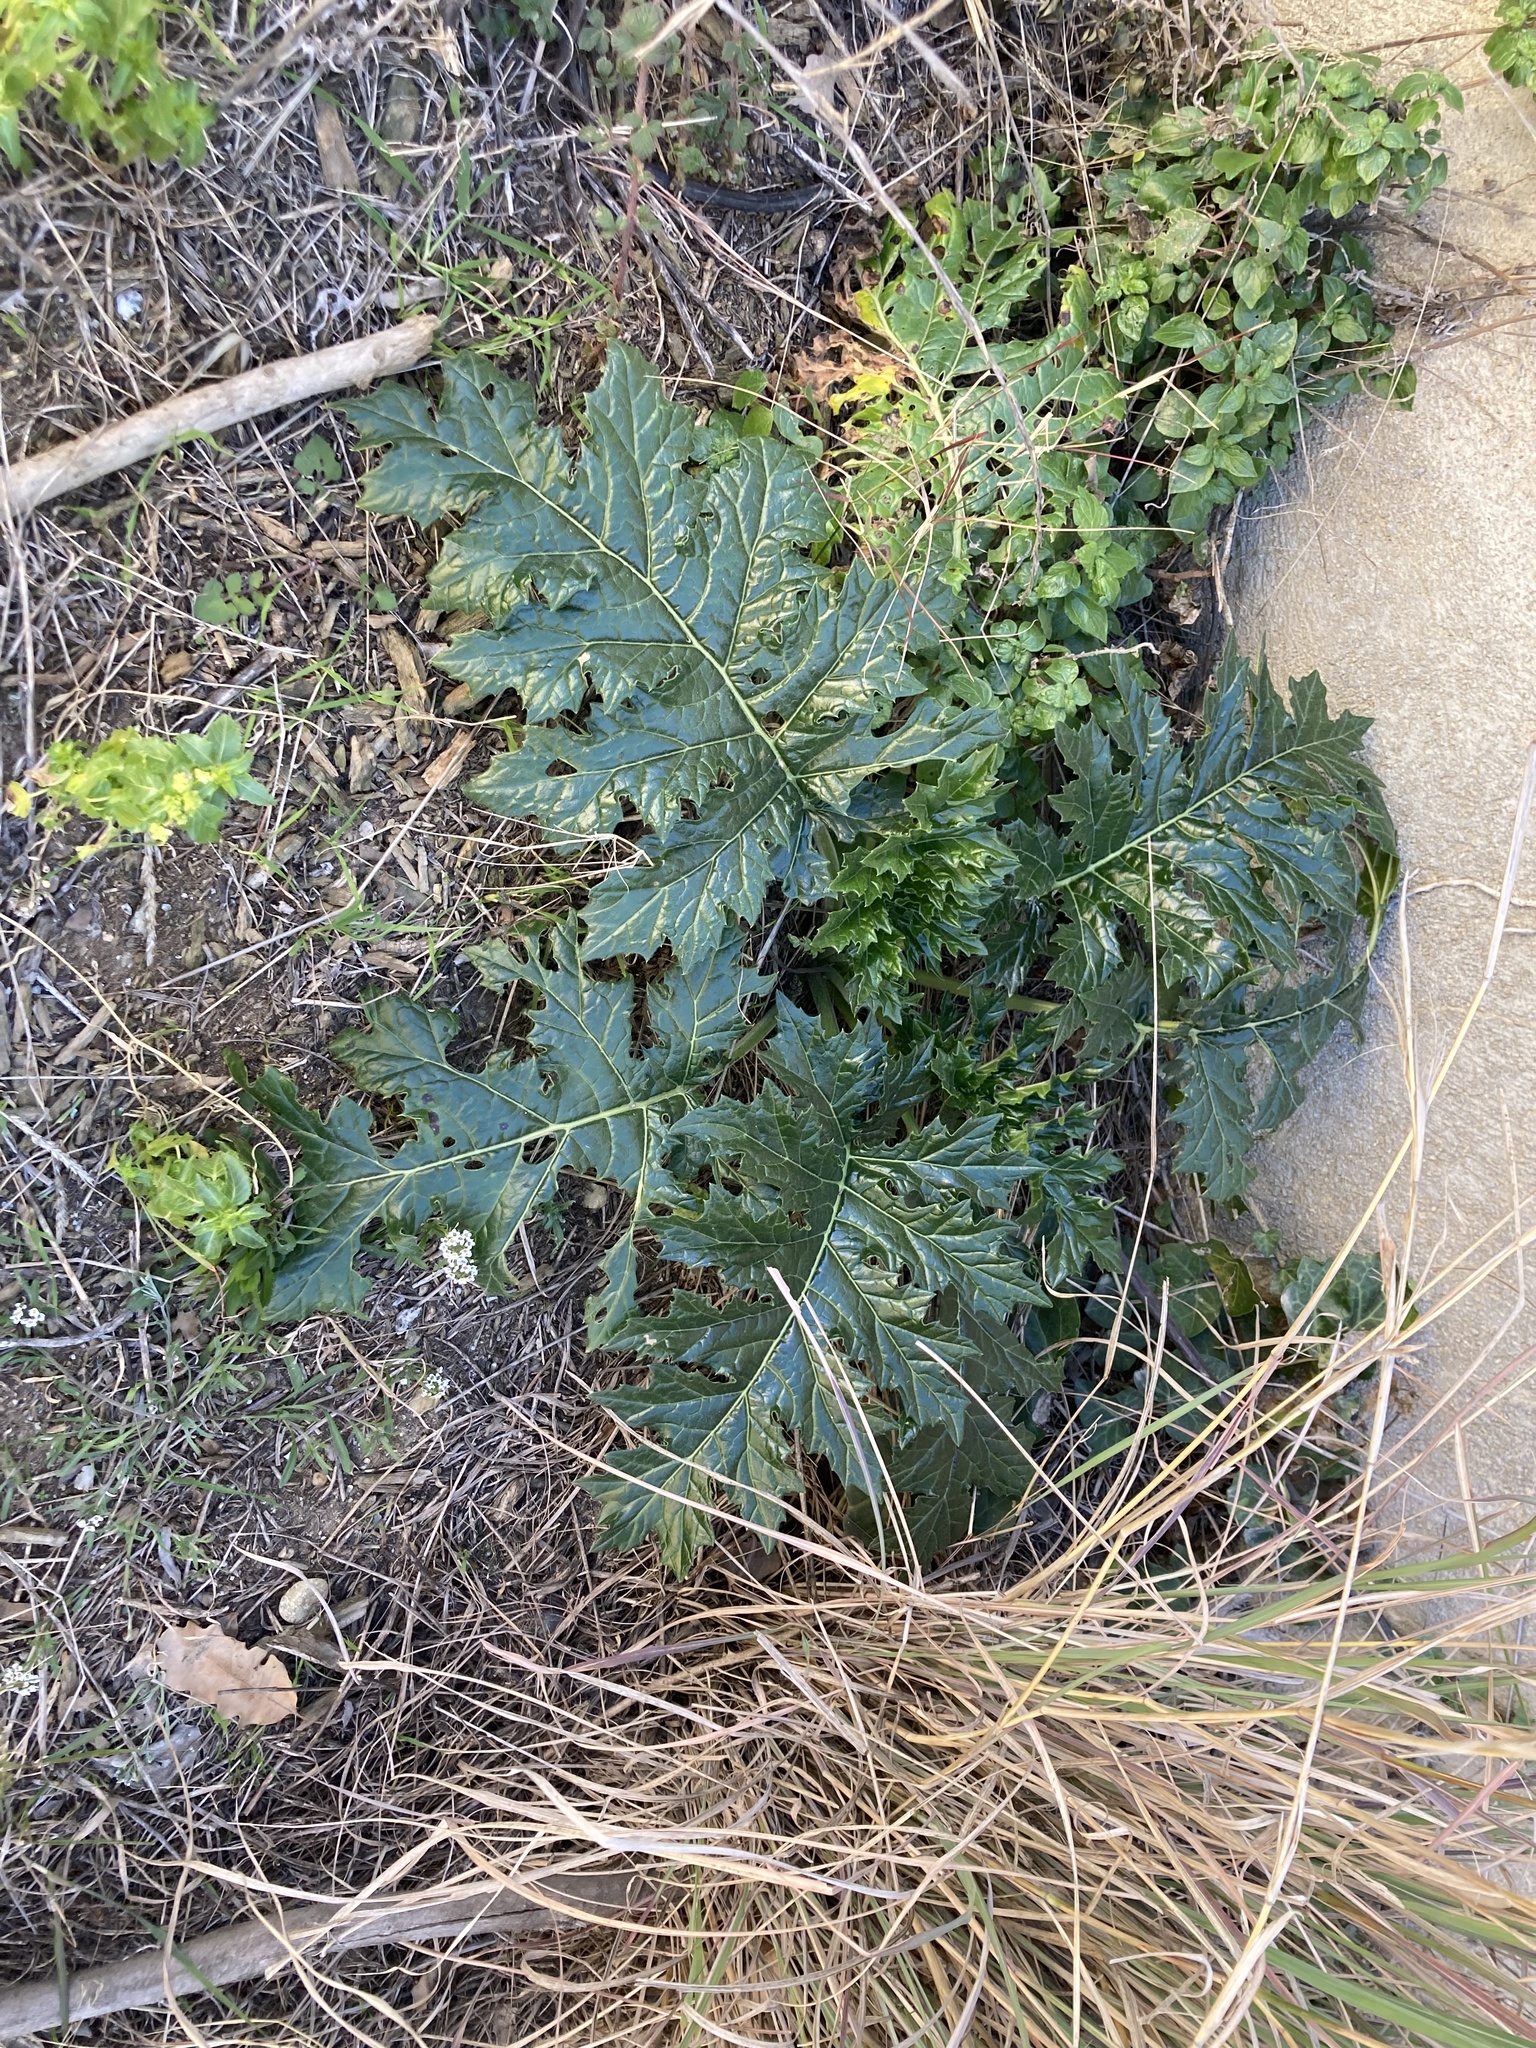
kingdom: Plantae
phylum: Tracheophyta
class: Magnoliopsida
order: Lamiales
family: Acanthaceae
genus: Acanthus
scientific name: Acanthus mollis
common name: Bear's-breech
